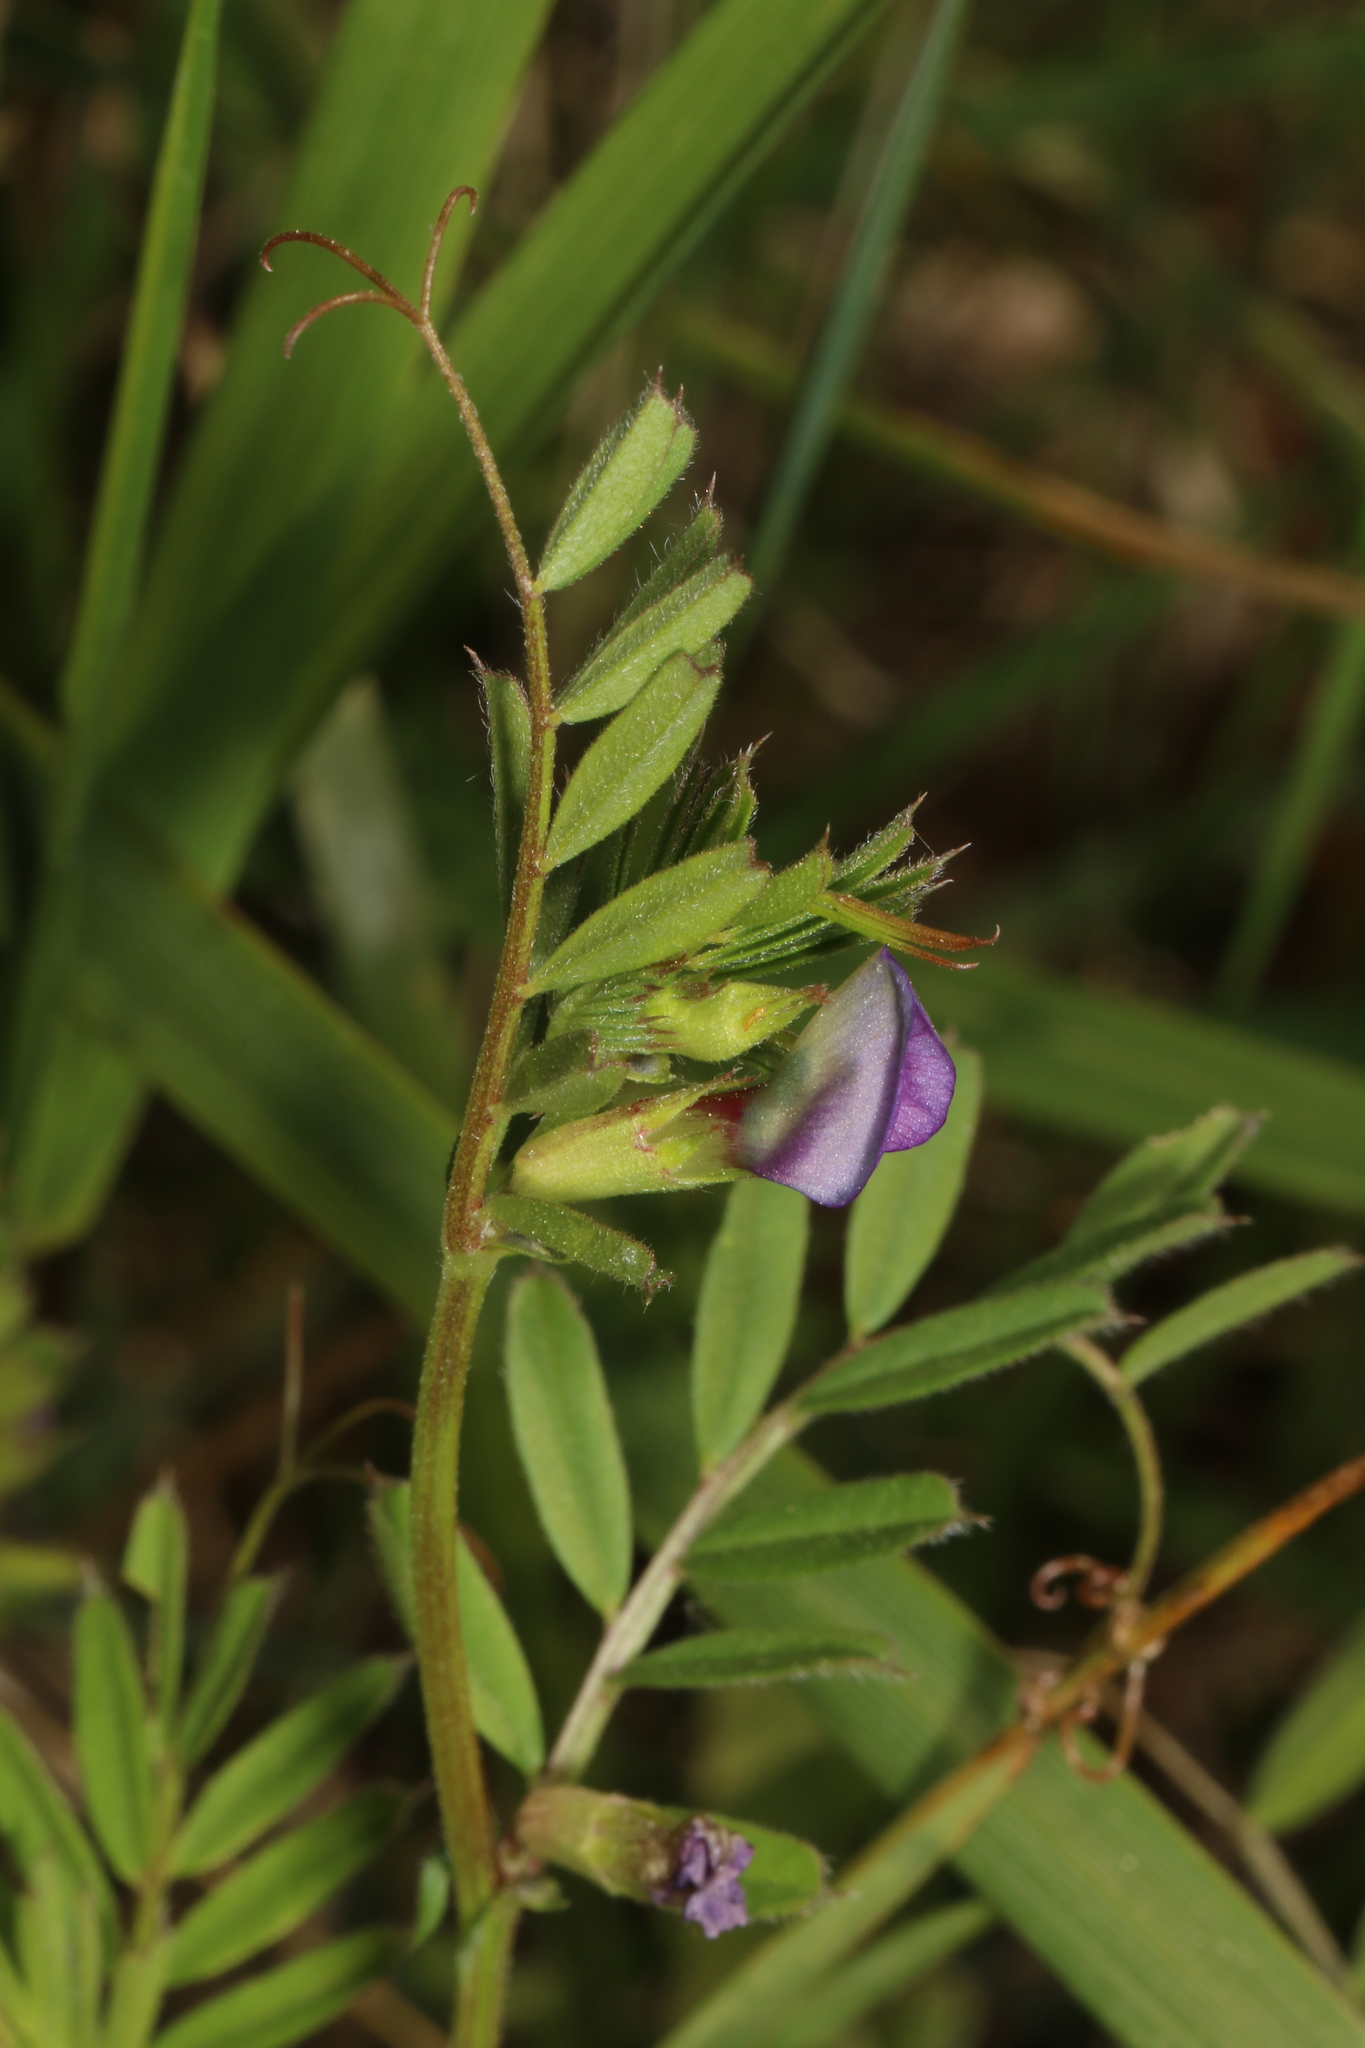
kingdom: Plantae
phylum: Tracheophyta
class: Magnoliopsida
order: Fabales
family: Fabaceae
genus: Vicia
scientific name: Vicia sativa
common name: Garden vetch
